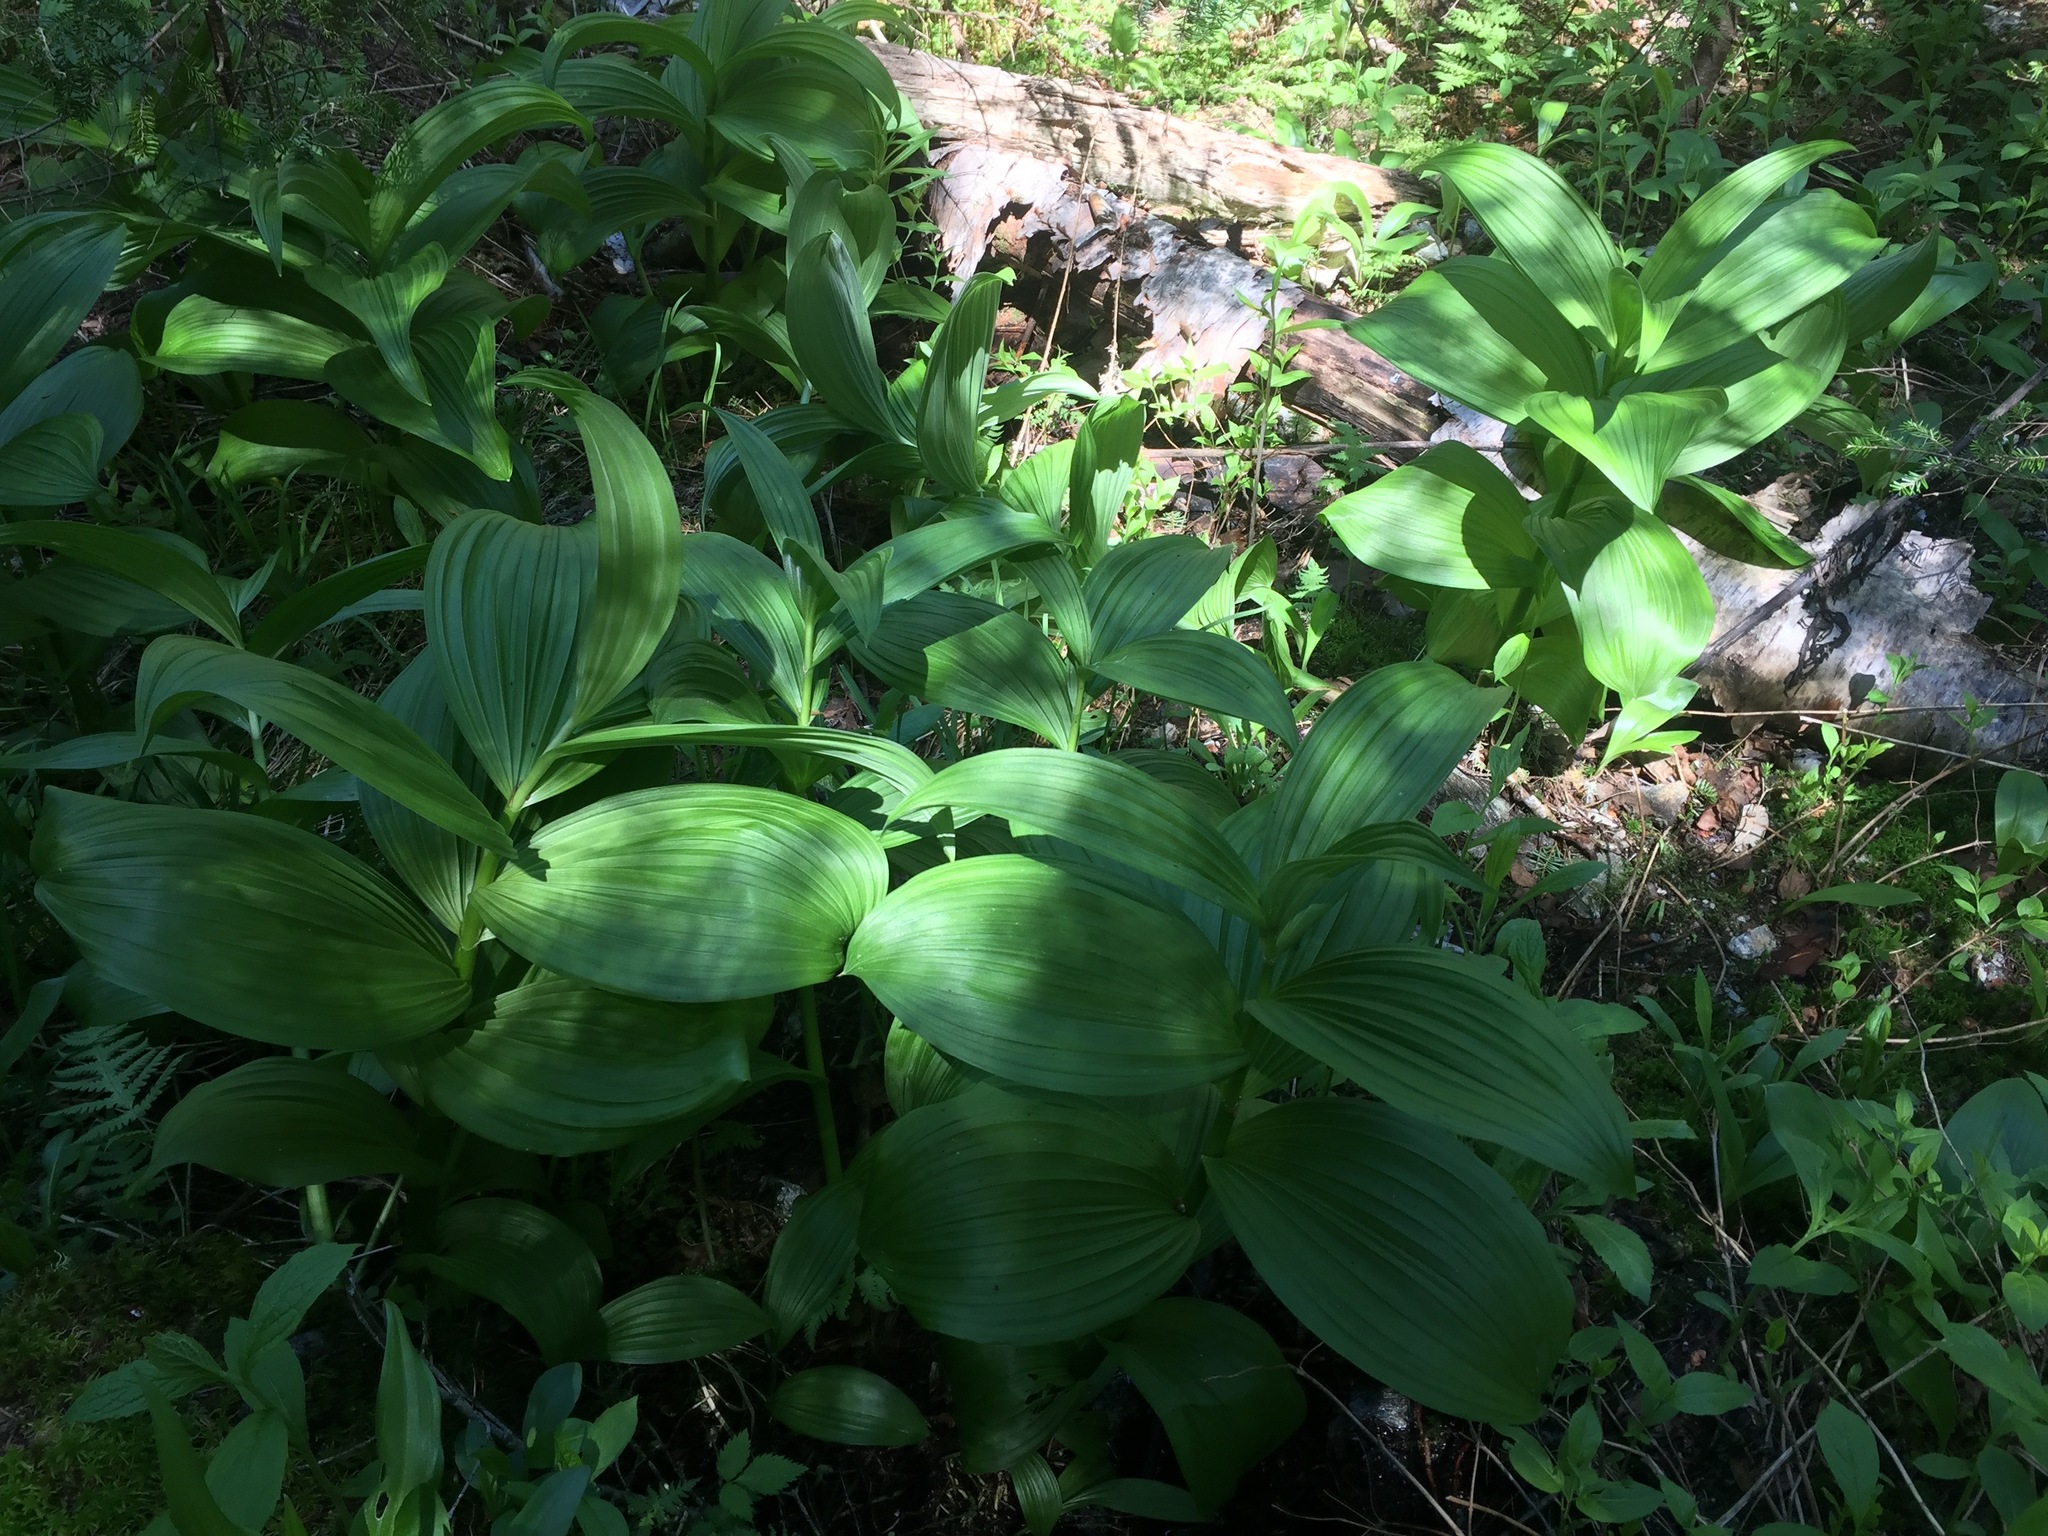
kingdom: Plantae
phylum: Tracheophyta
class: Liliopsida
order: Liliales
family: Melanthiaceae
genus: Veratrum
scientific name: Veratrum viride
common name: American false hellebore
